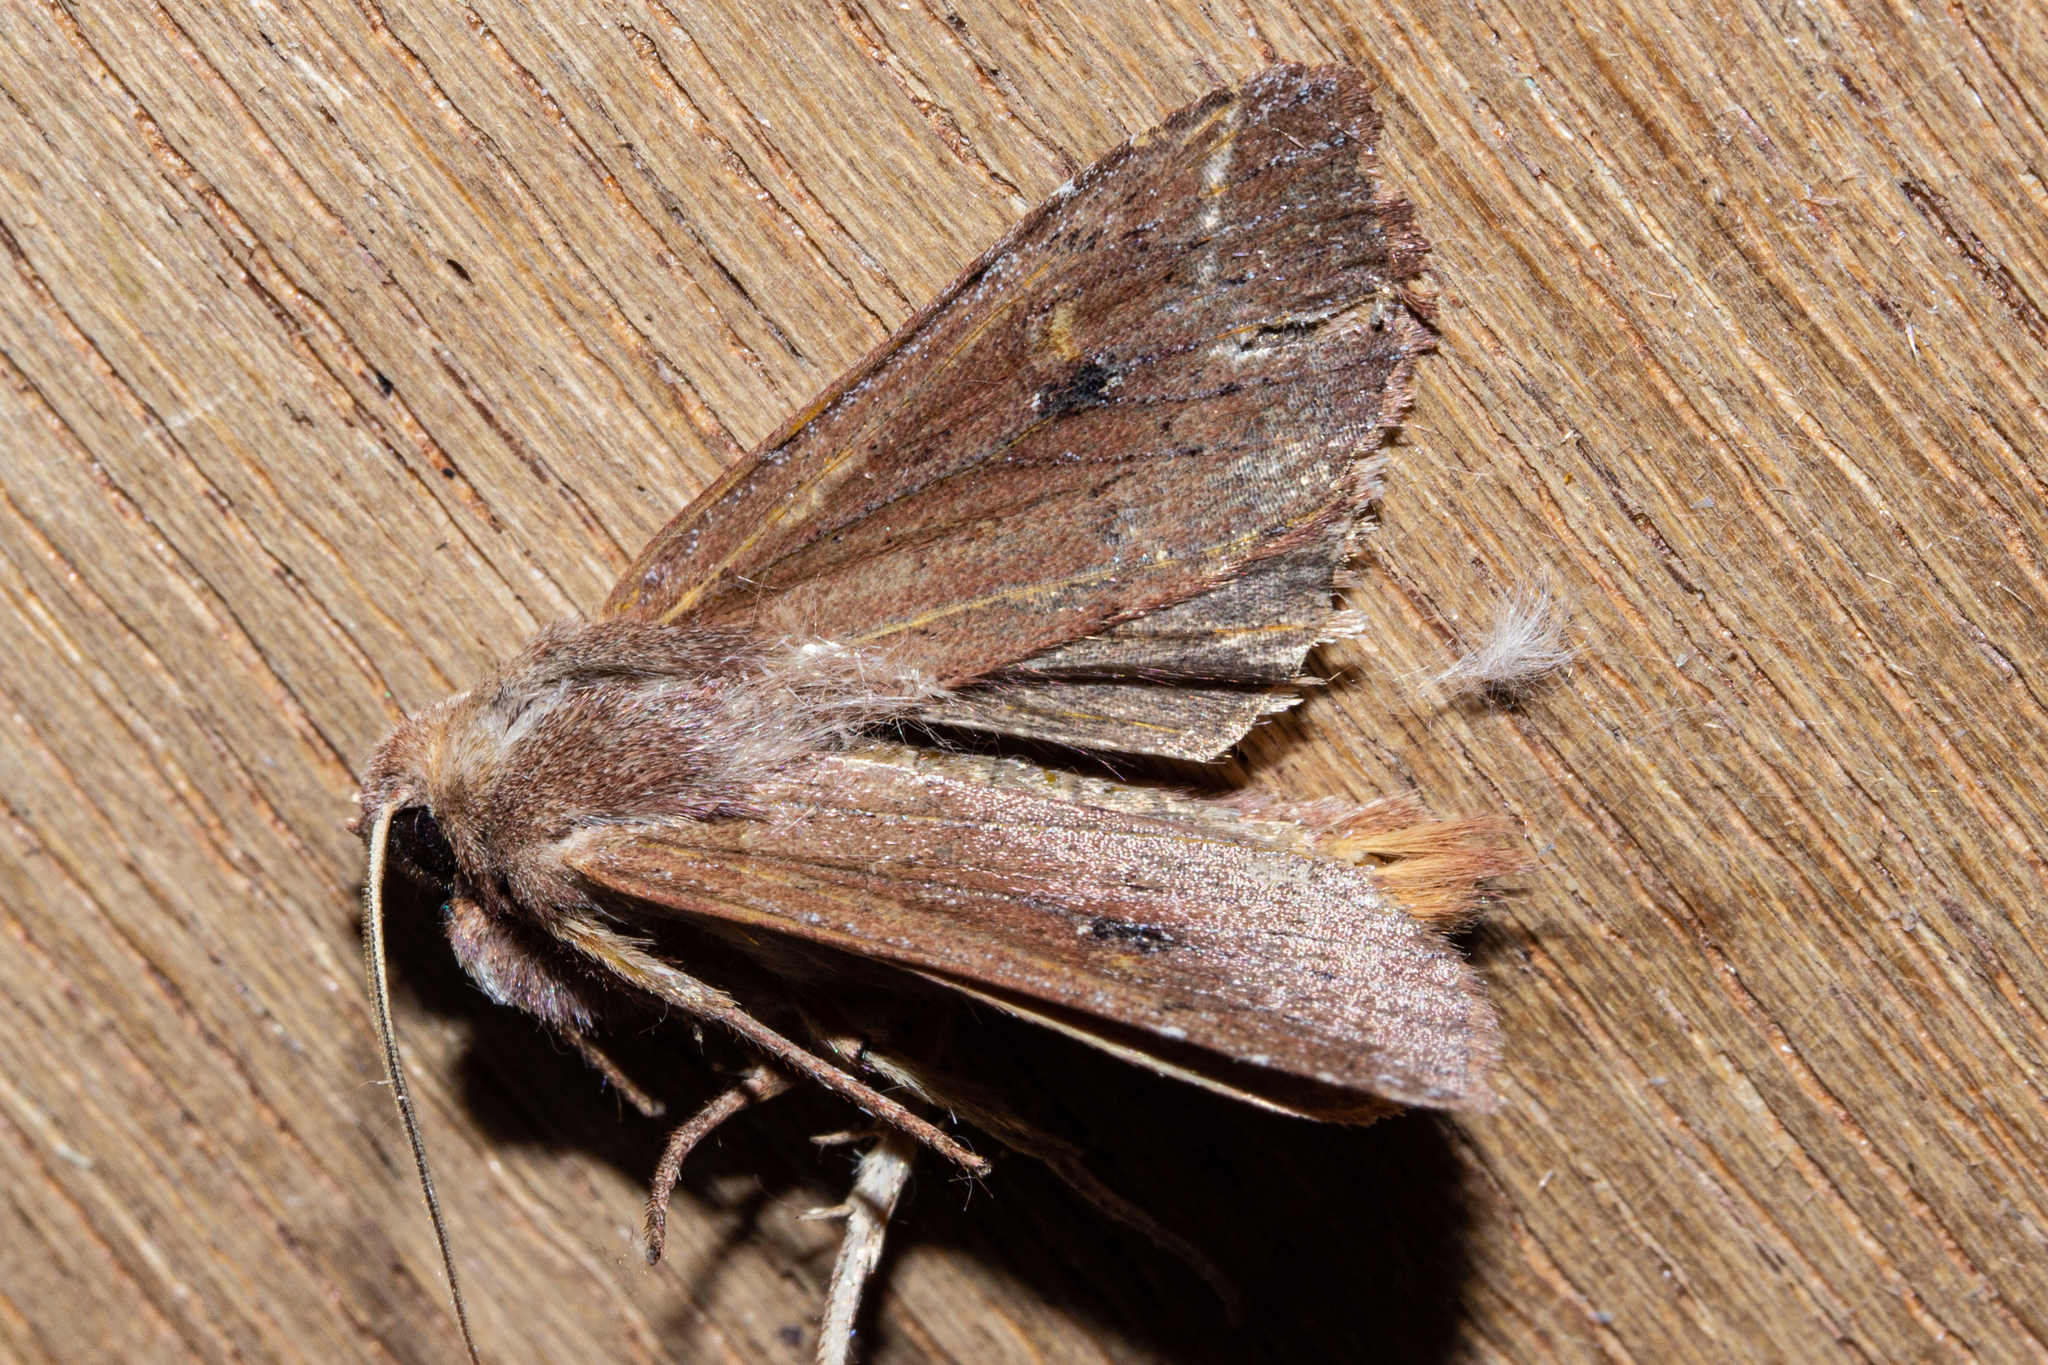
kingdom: Animalia
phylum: Arthropoda
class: Insecta
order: Lepidoptera
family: Noctuidae
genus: Ichneutica
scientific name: Ichneutica
